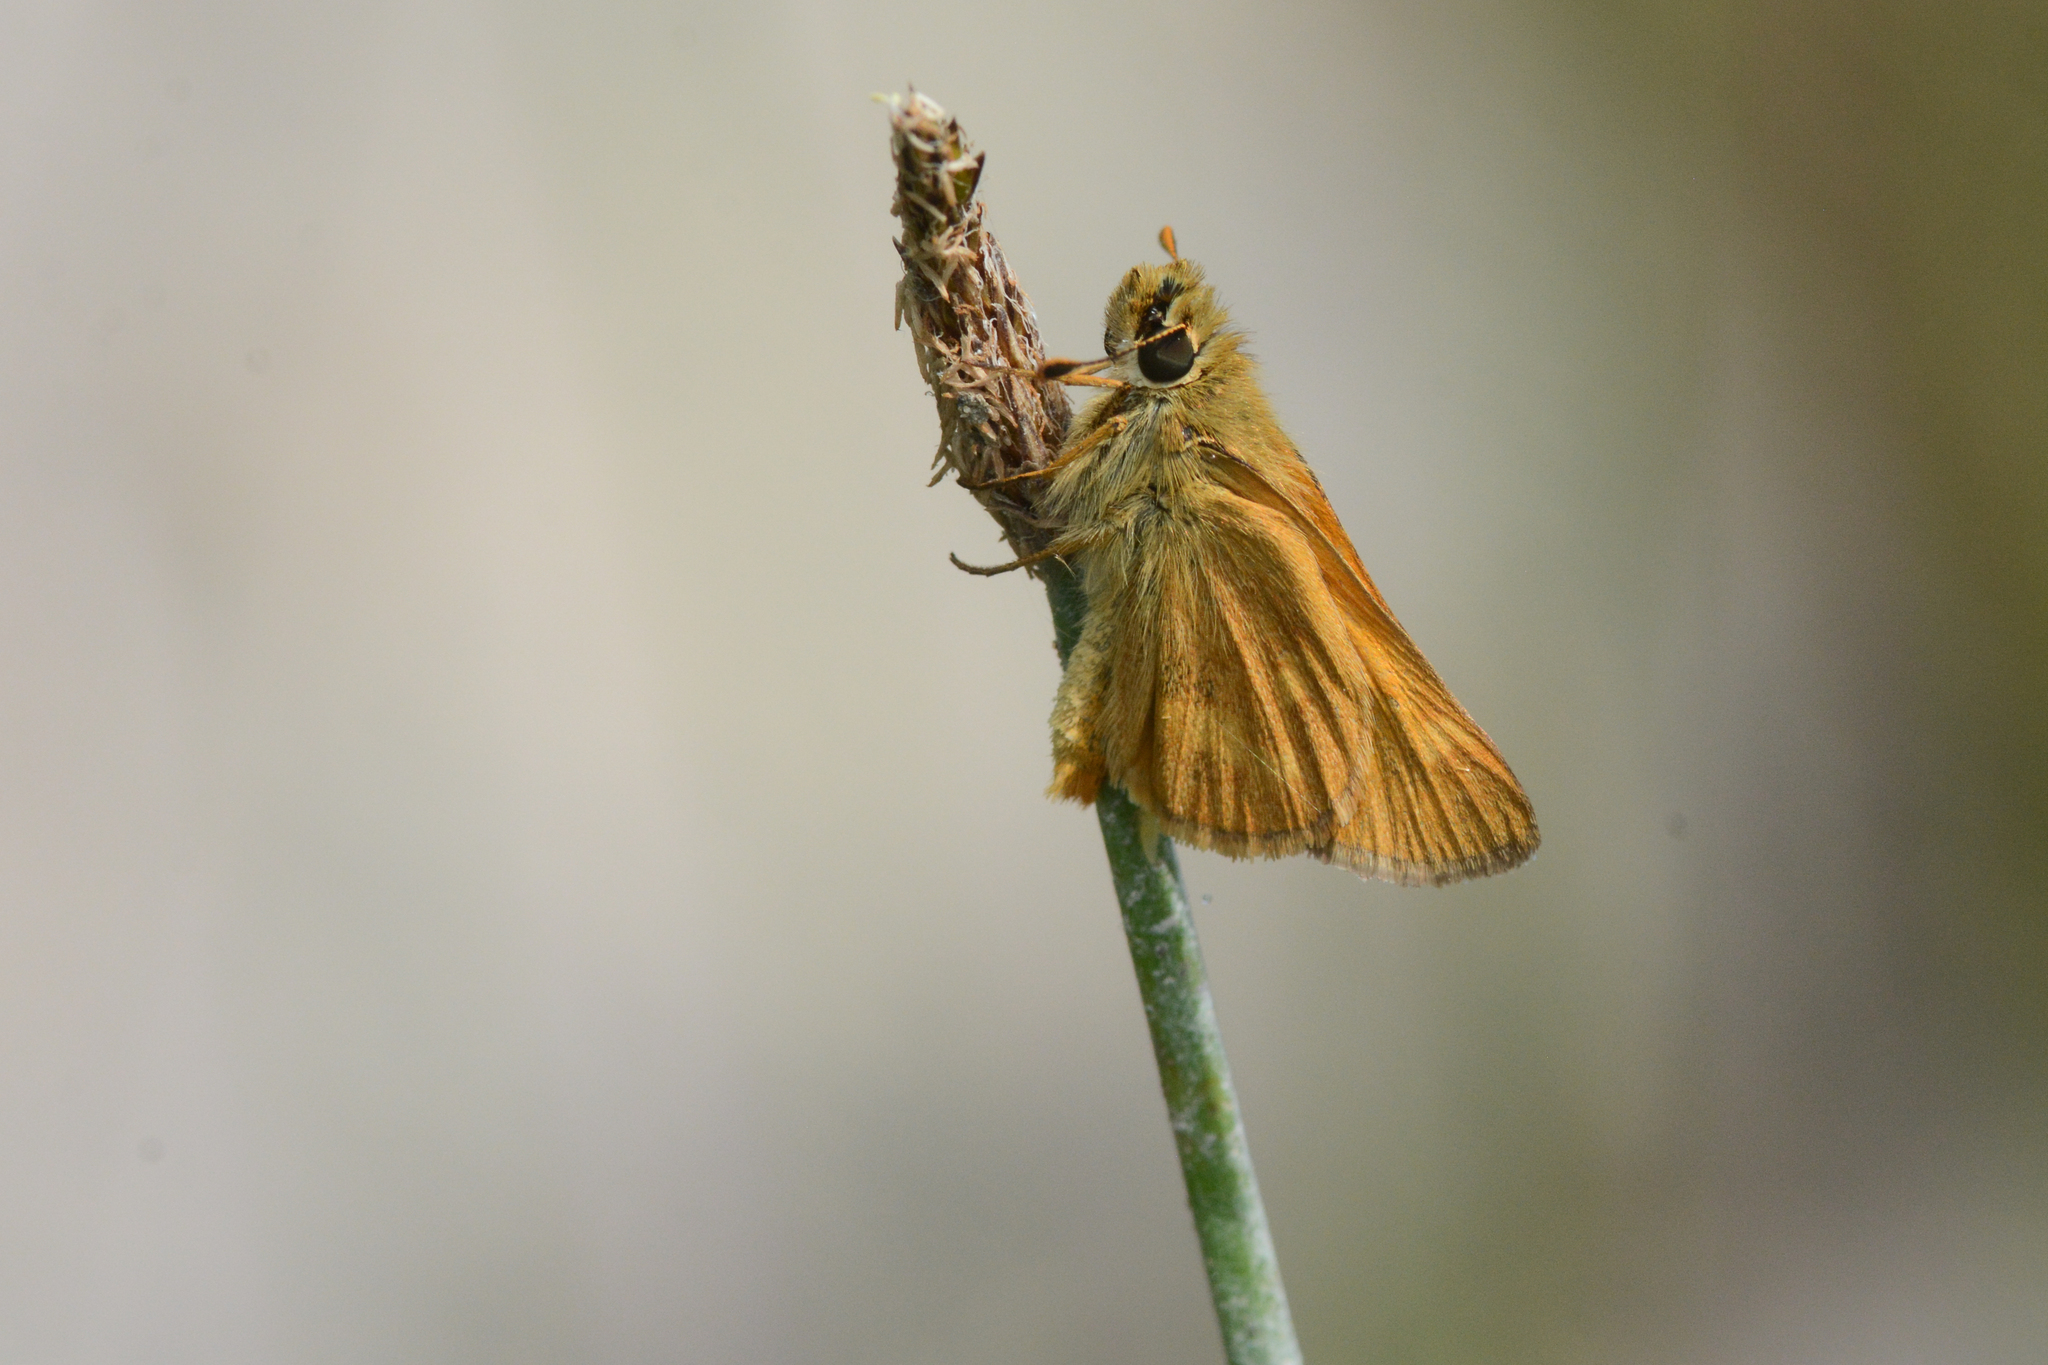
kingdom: Animalia
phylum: Arthropoda
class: Insecta
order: Lepidoptera
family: Hesperiidae
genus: Ochlodes
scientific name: Ochlodes sylvanoides
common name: Woodland skipper
